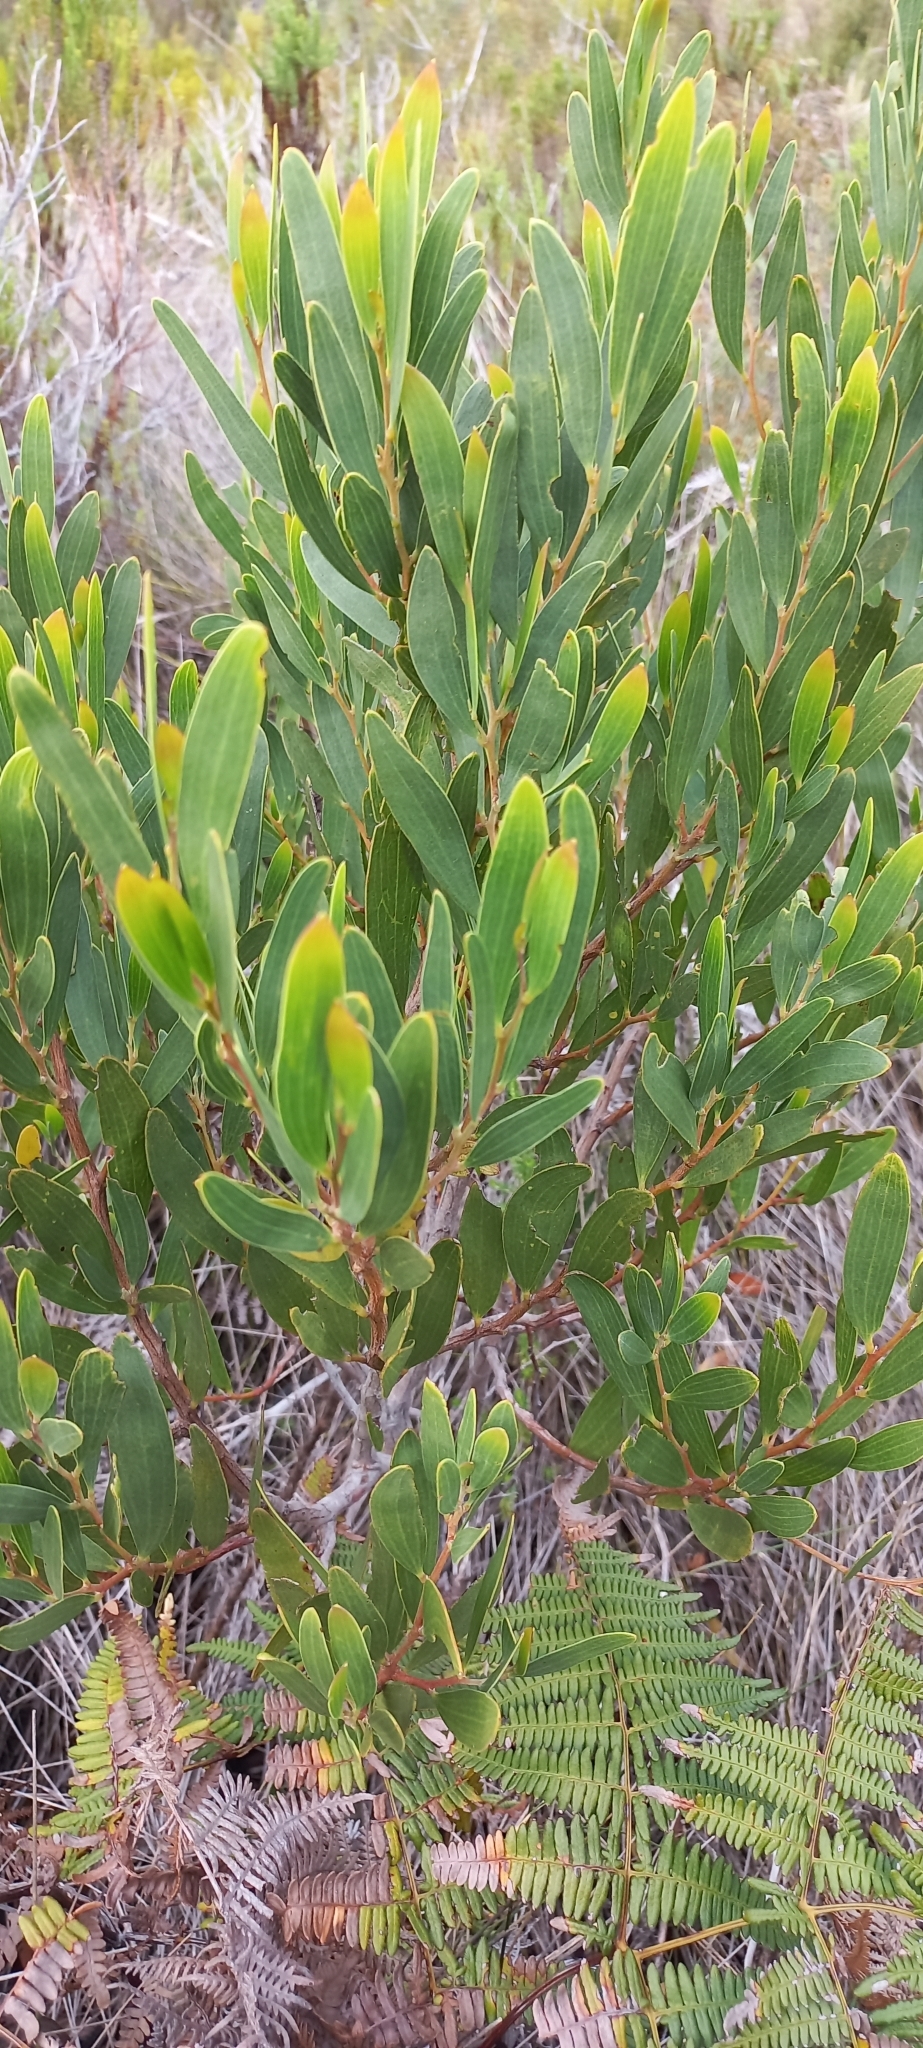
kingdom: Plantae
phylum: Tracheophyta
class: Magnoliopsida
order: Fabales
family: Fabaceae
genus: Acacia
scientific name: Acacia cyclops
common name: Coastal wattle
